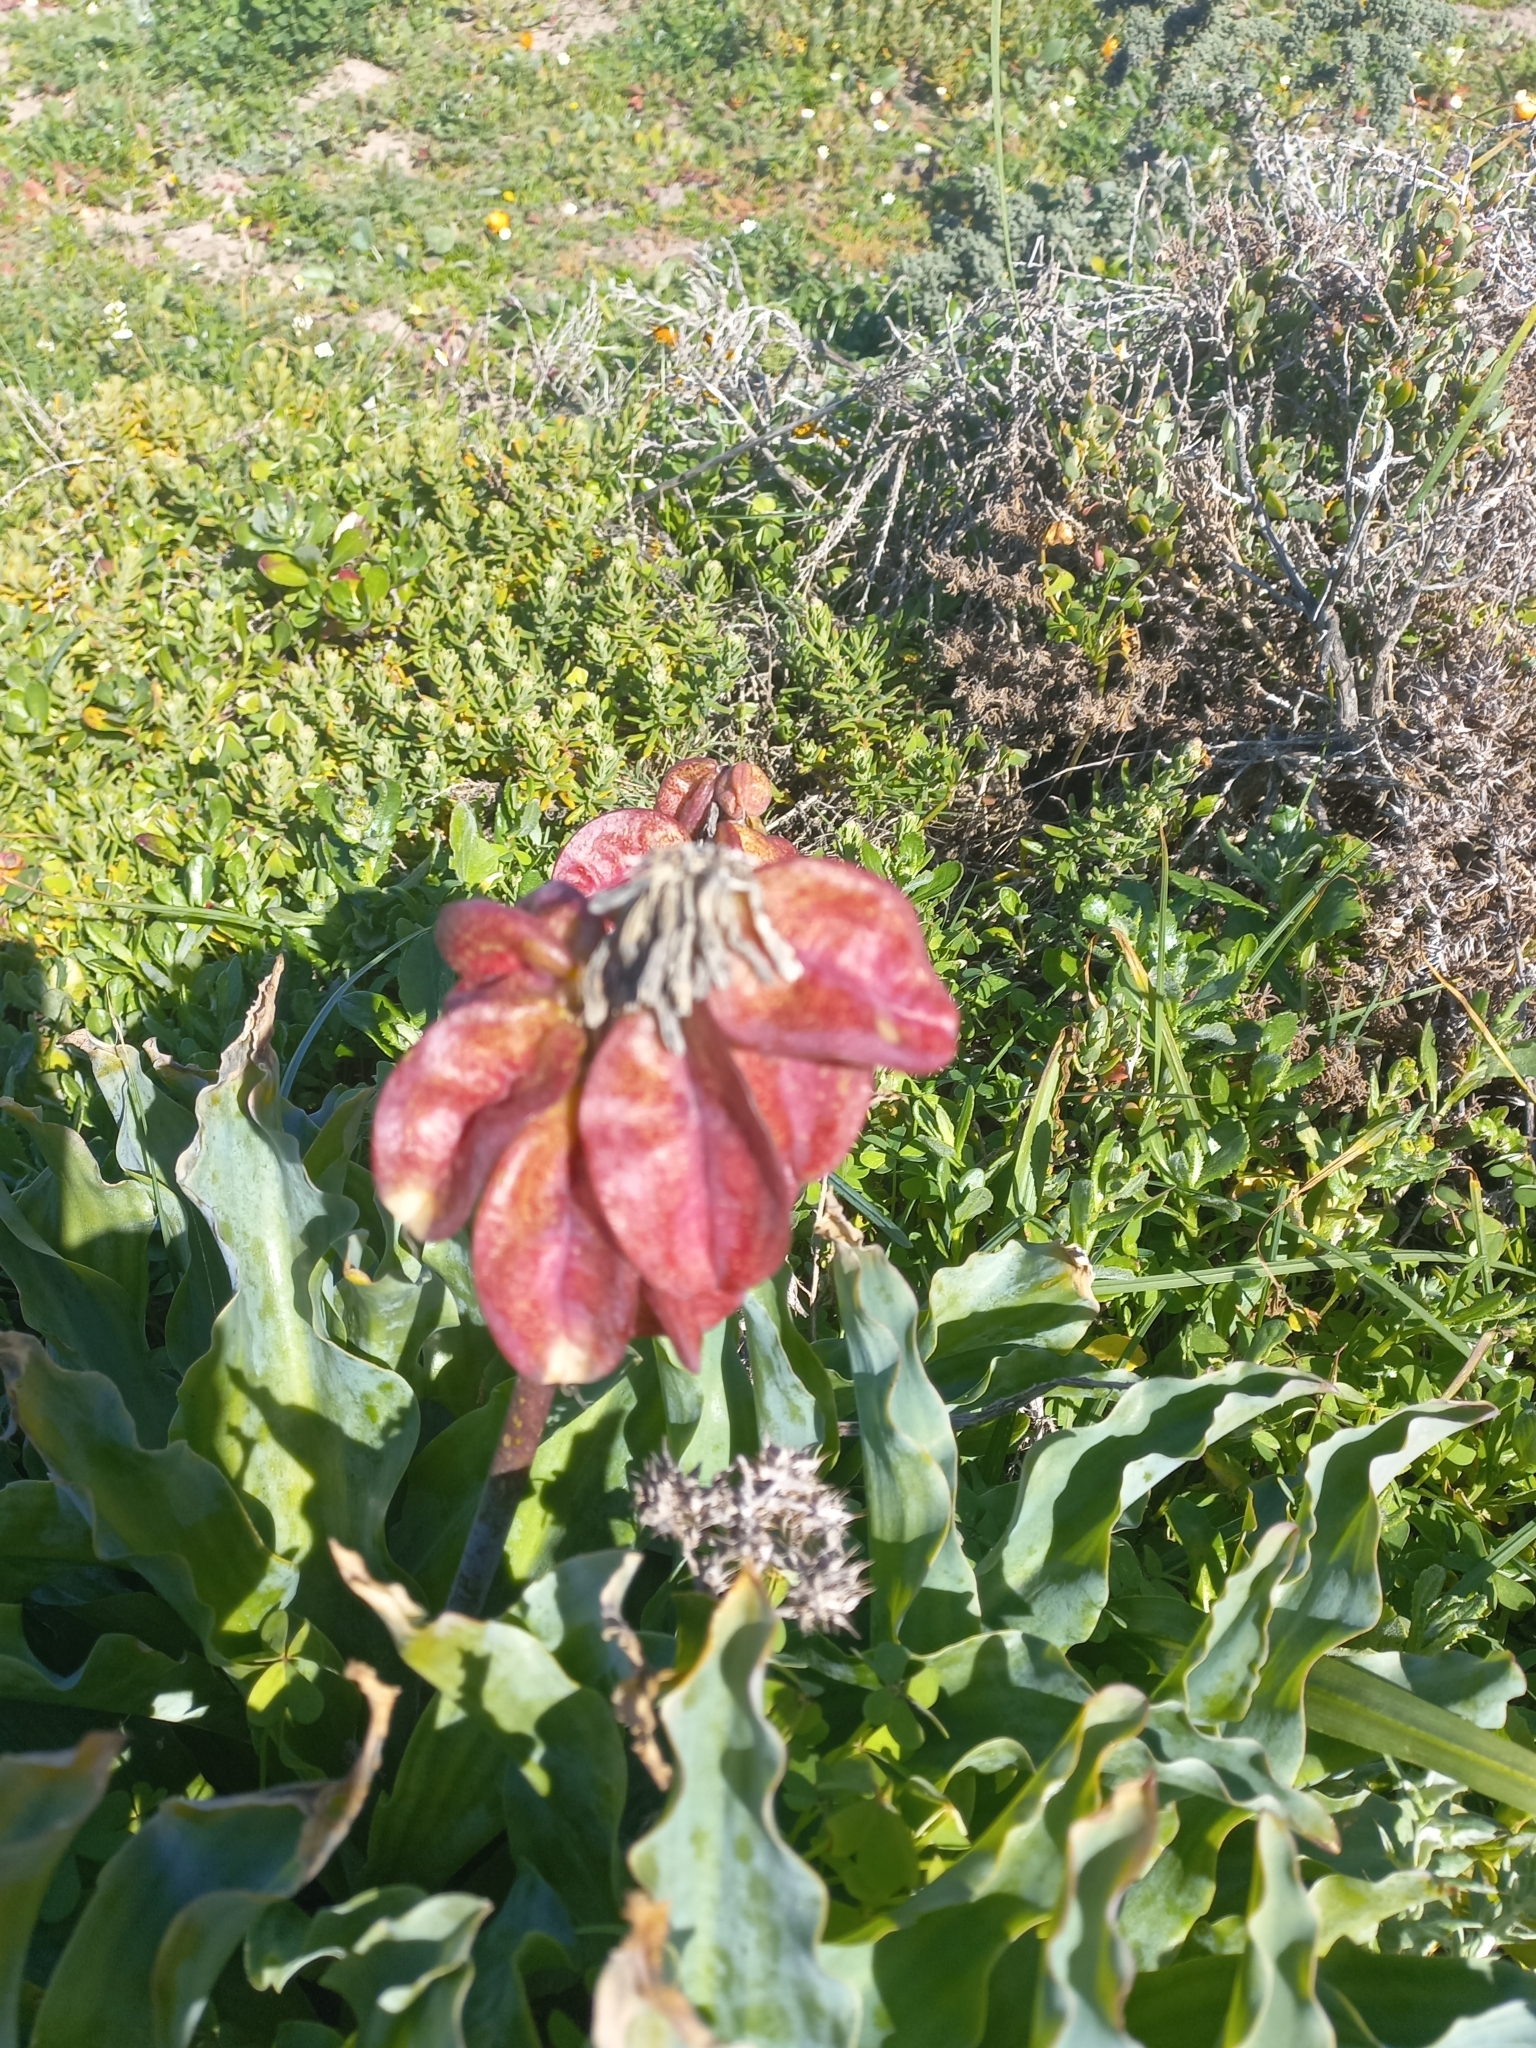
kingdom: Plantae
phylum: Tracheophyta
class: Liliopsida
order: Asparagales
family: Asparagaceae
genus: Veltheimia
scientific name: Veltheimia capensis
